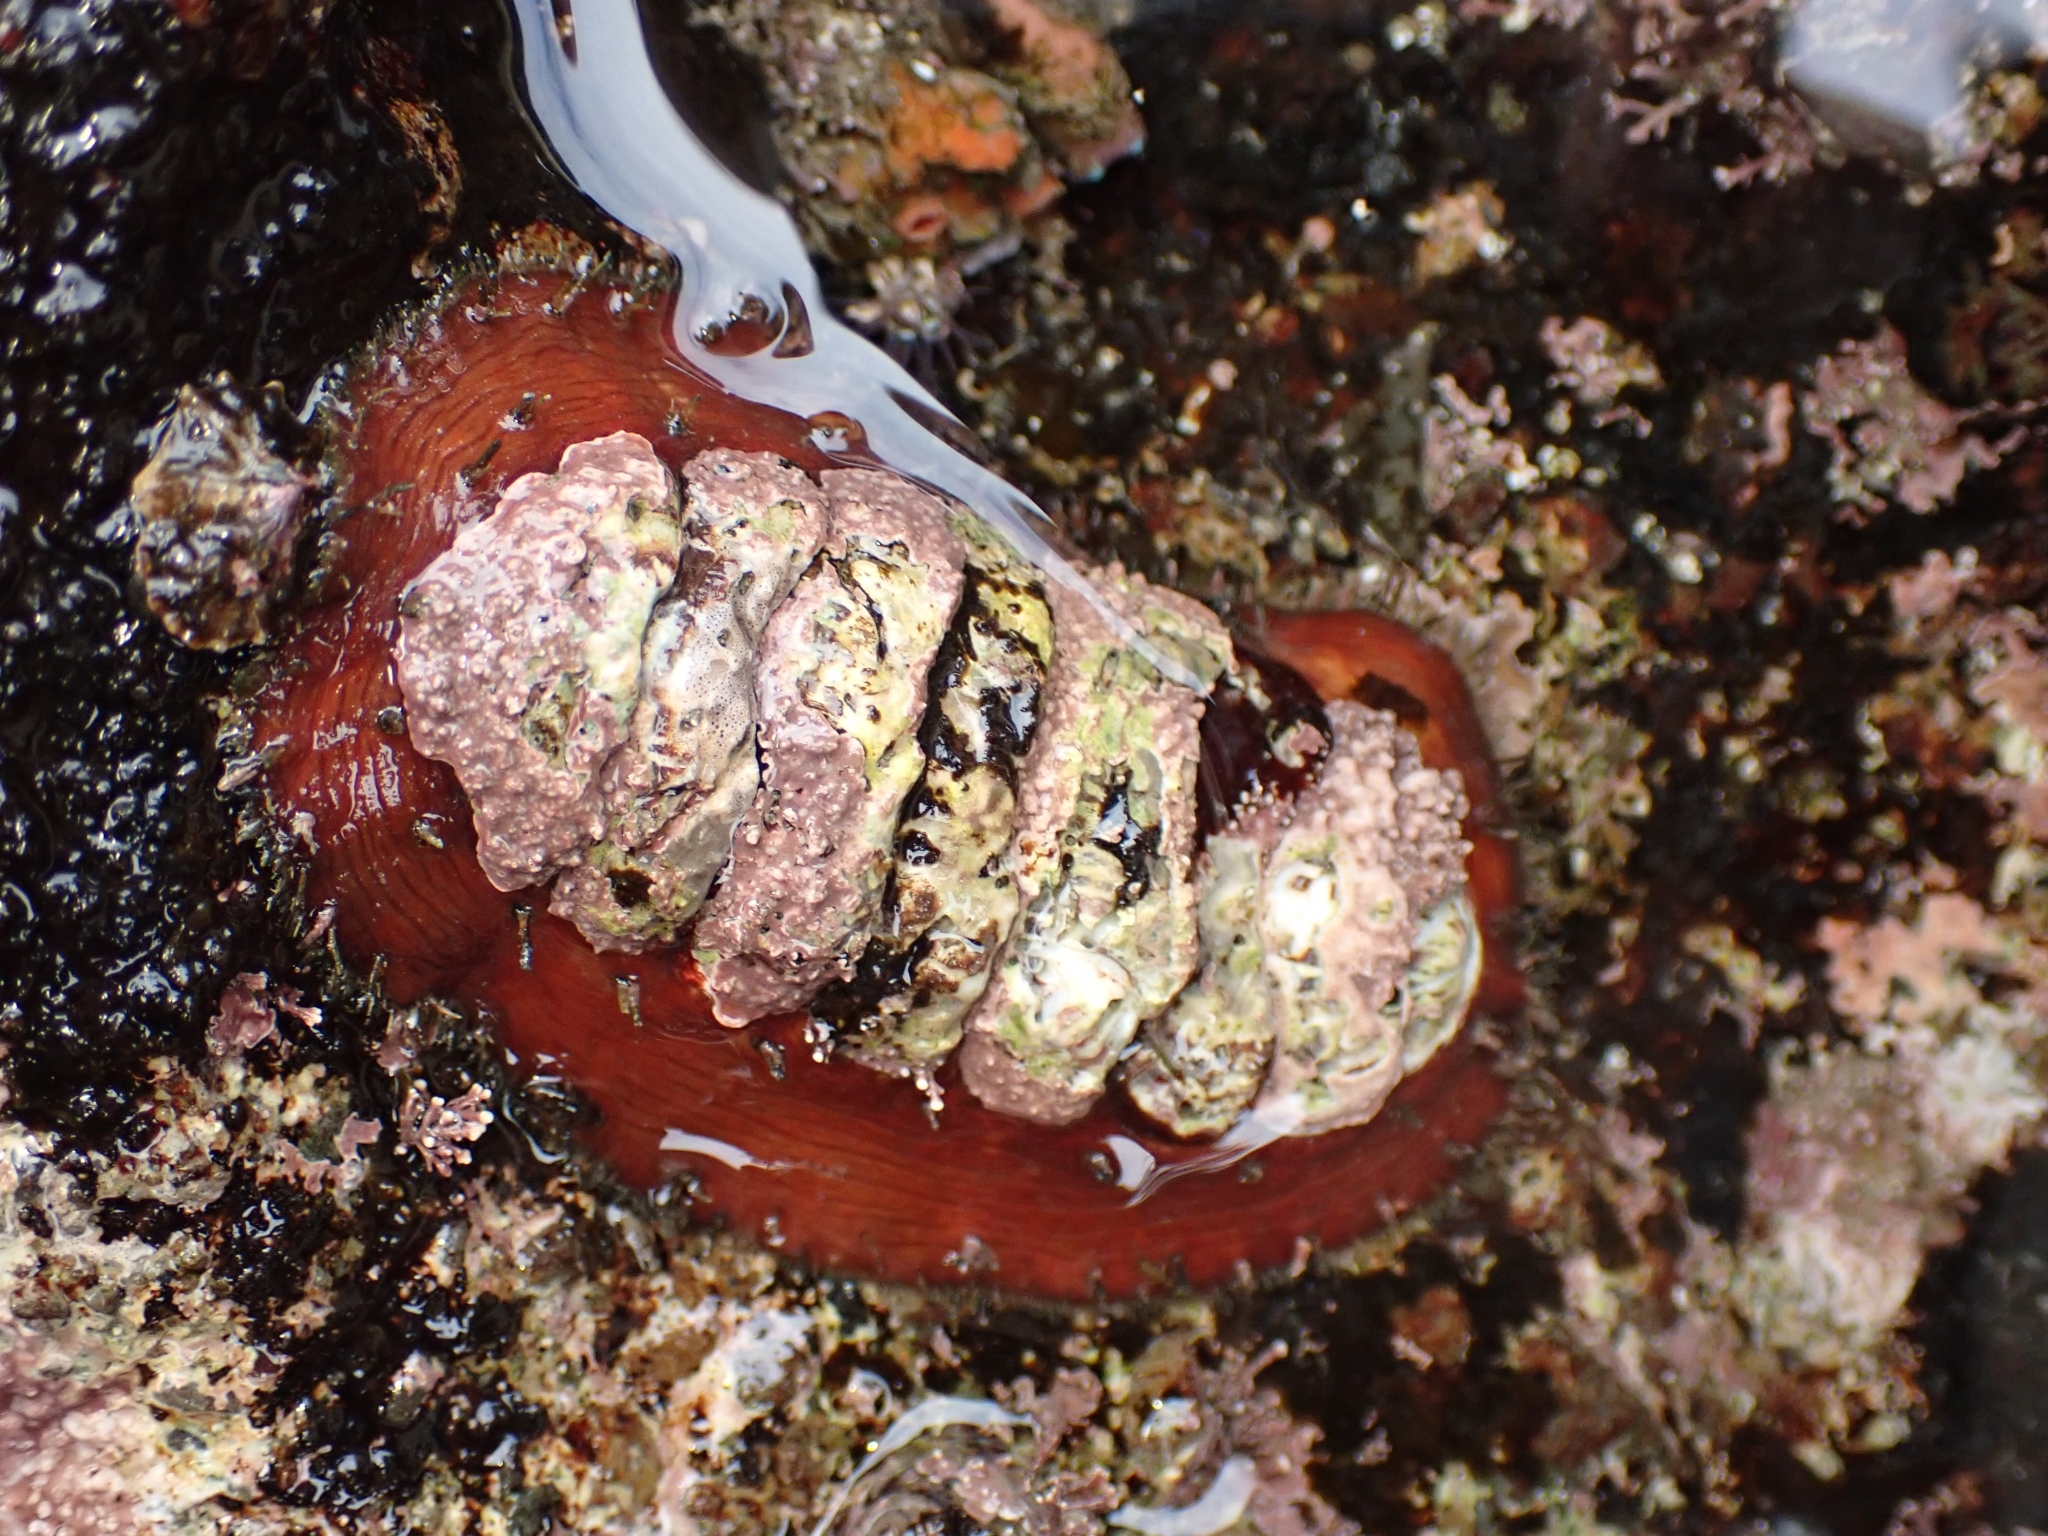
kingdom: Animalia
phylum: Mollusca
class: Polyplacophora
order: Chitonida
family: Mopaliidae
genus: Plaxiphora
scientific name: Plaxiphora biramosa
